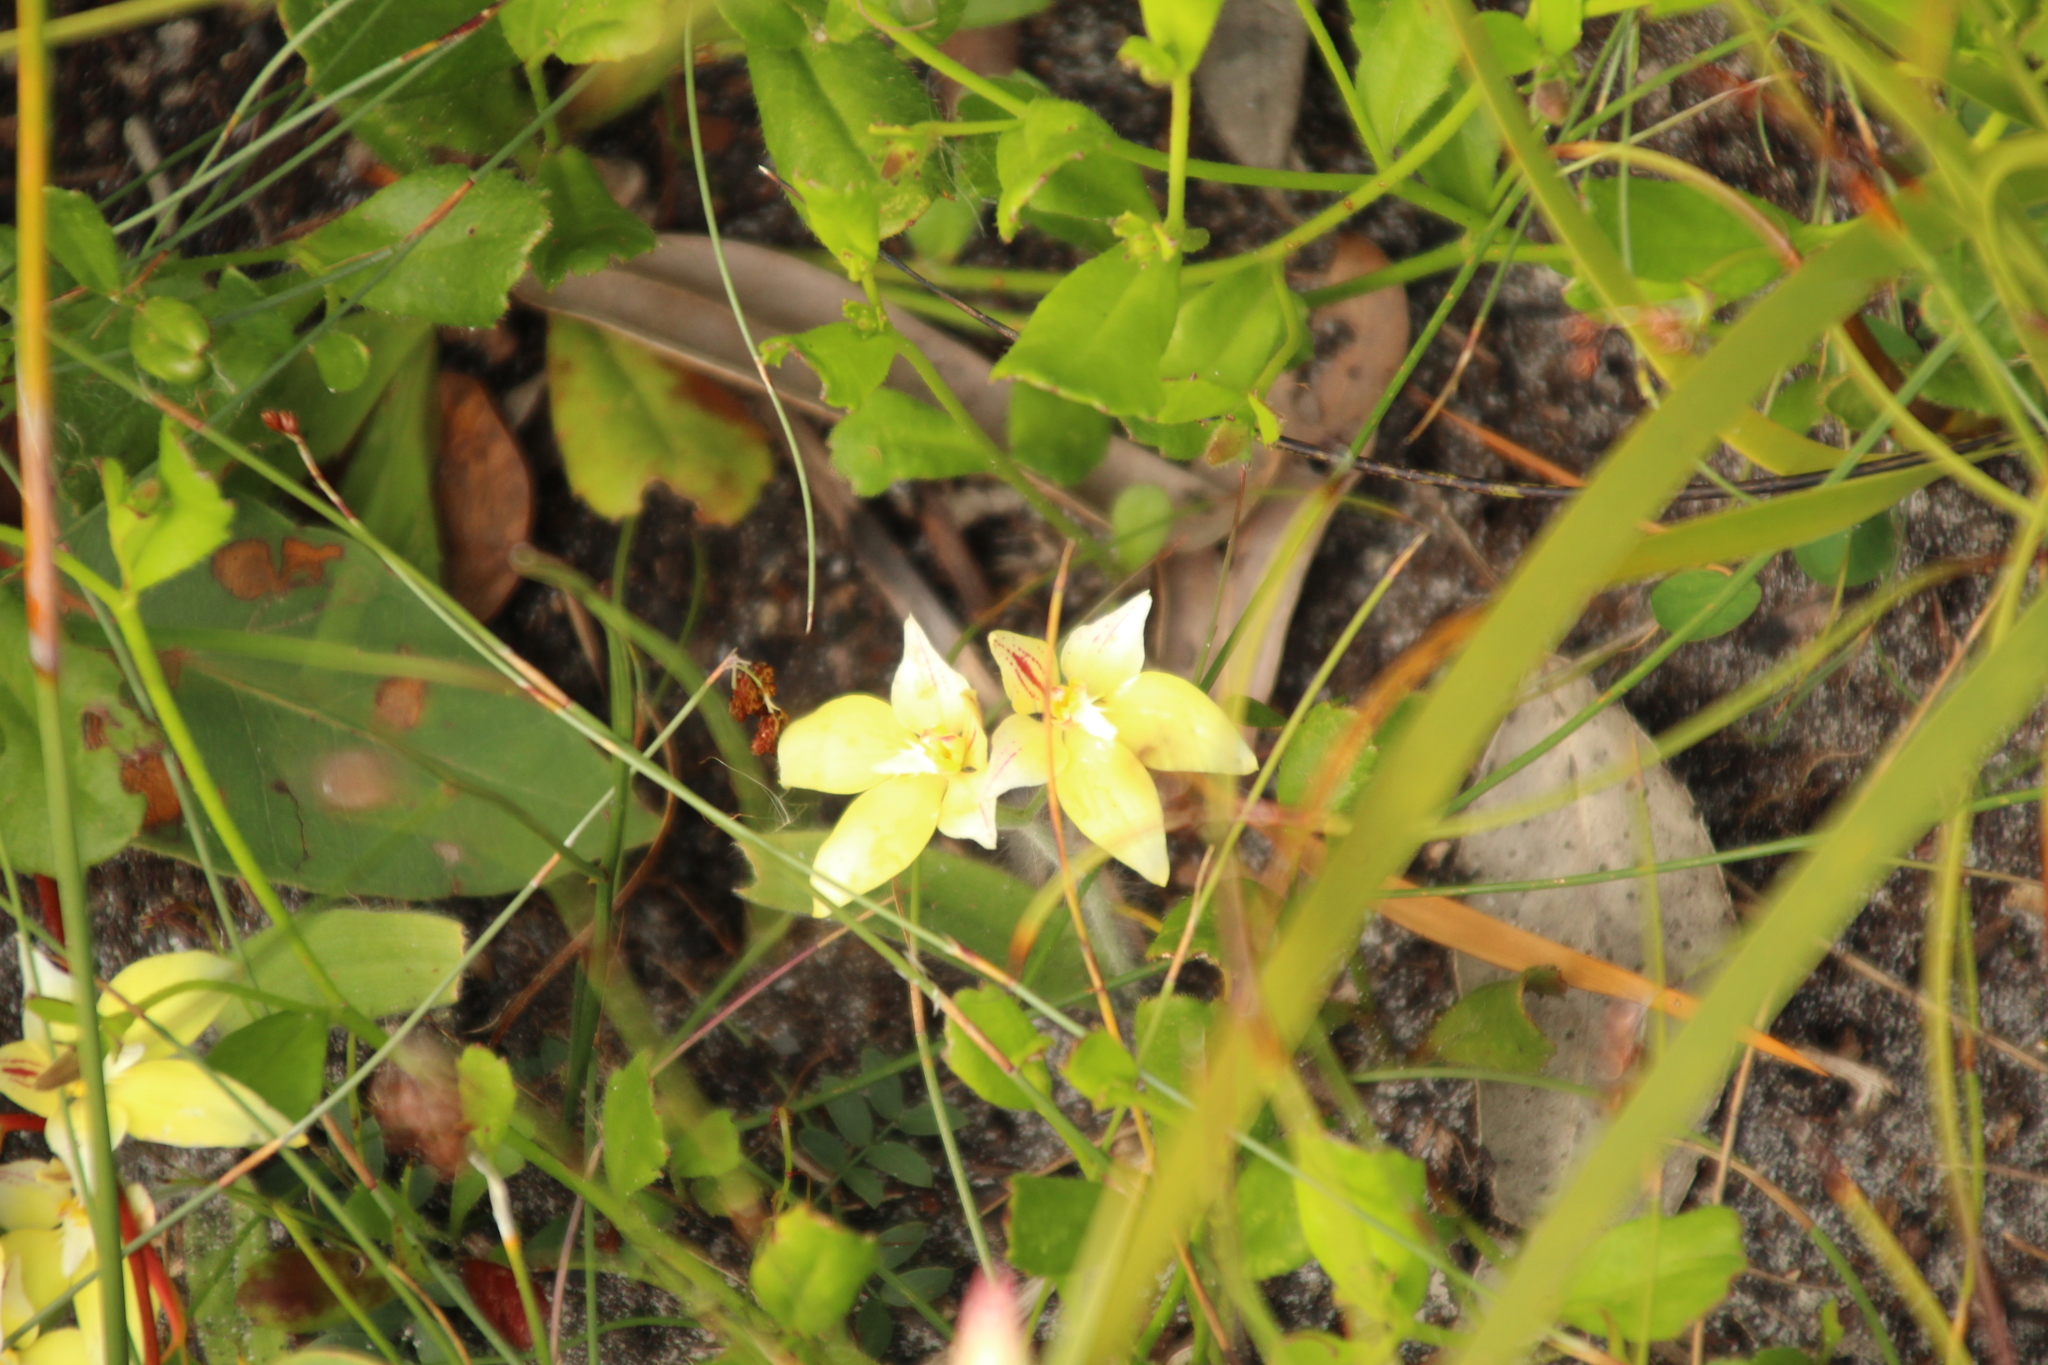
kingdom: Plantae
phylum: Tracheophyta
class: Liliopsida
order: Asparagales
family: Orchidaceae
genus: Caladenia
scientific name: Caladenia flava
